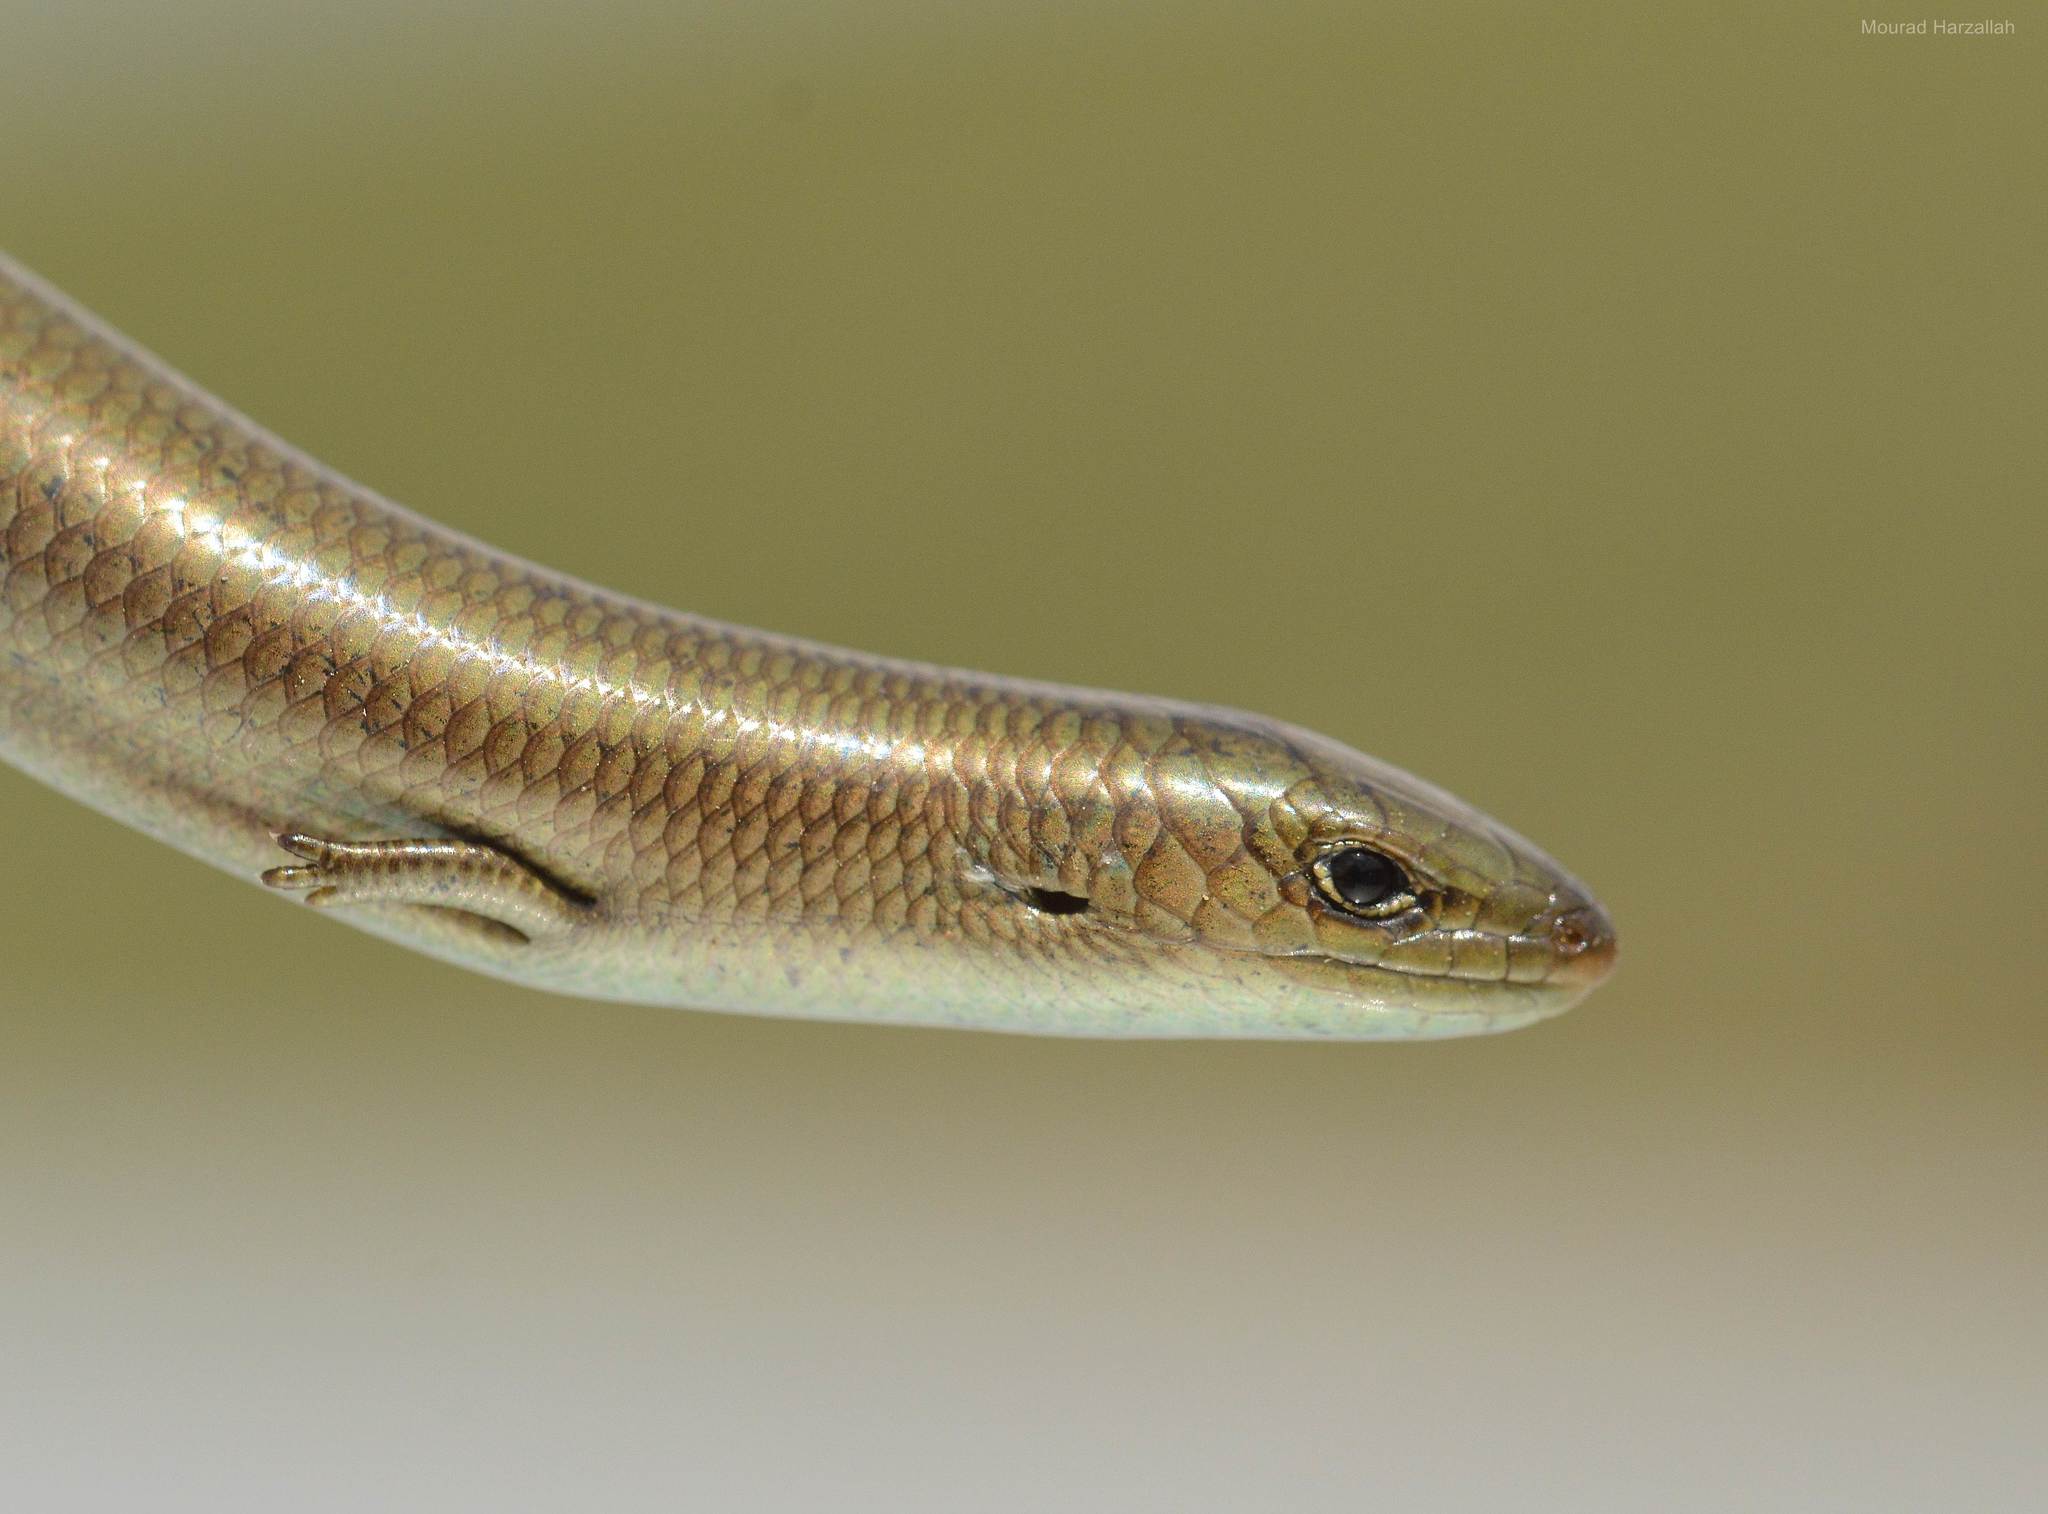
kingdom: Animalia
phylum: Chordata
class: Squamata
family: Scincidae
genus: Chalcides
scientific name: Chalcides mertensi
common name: Algerian three-toed skink
